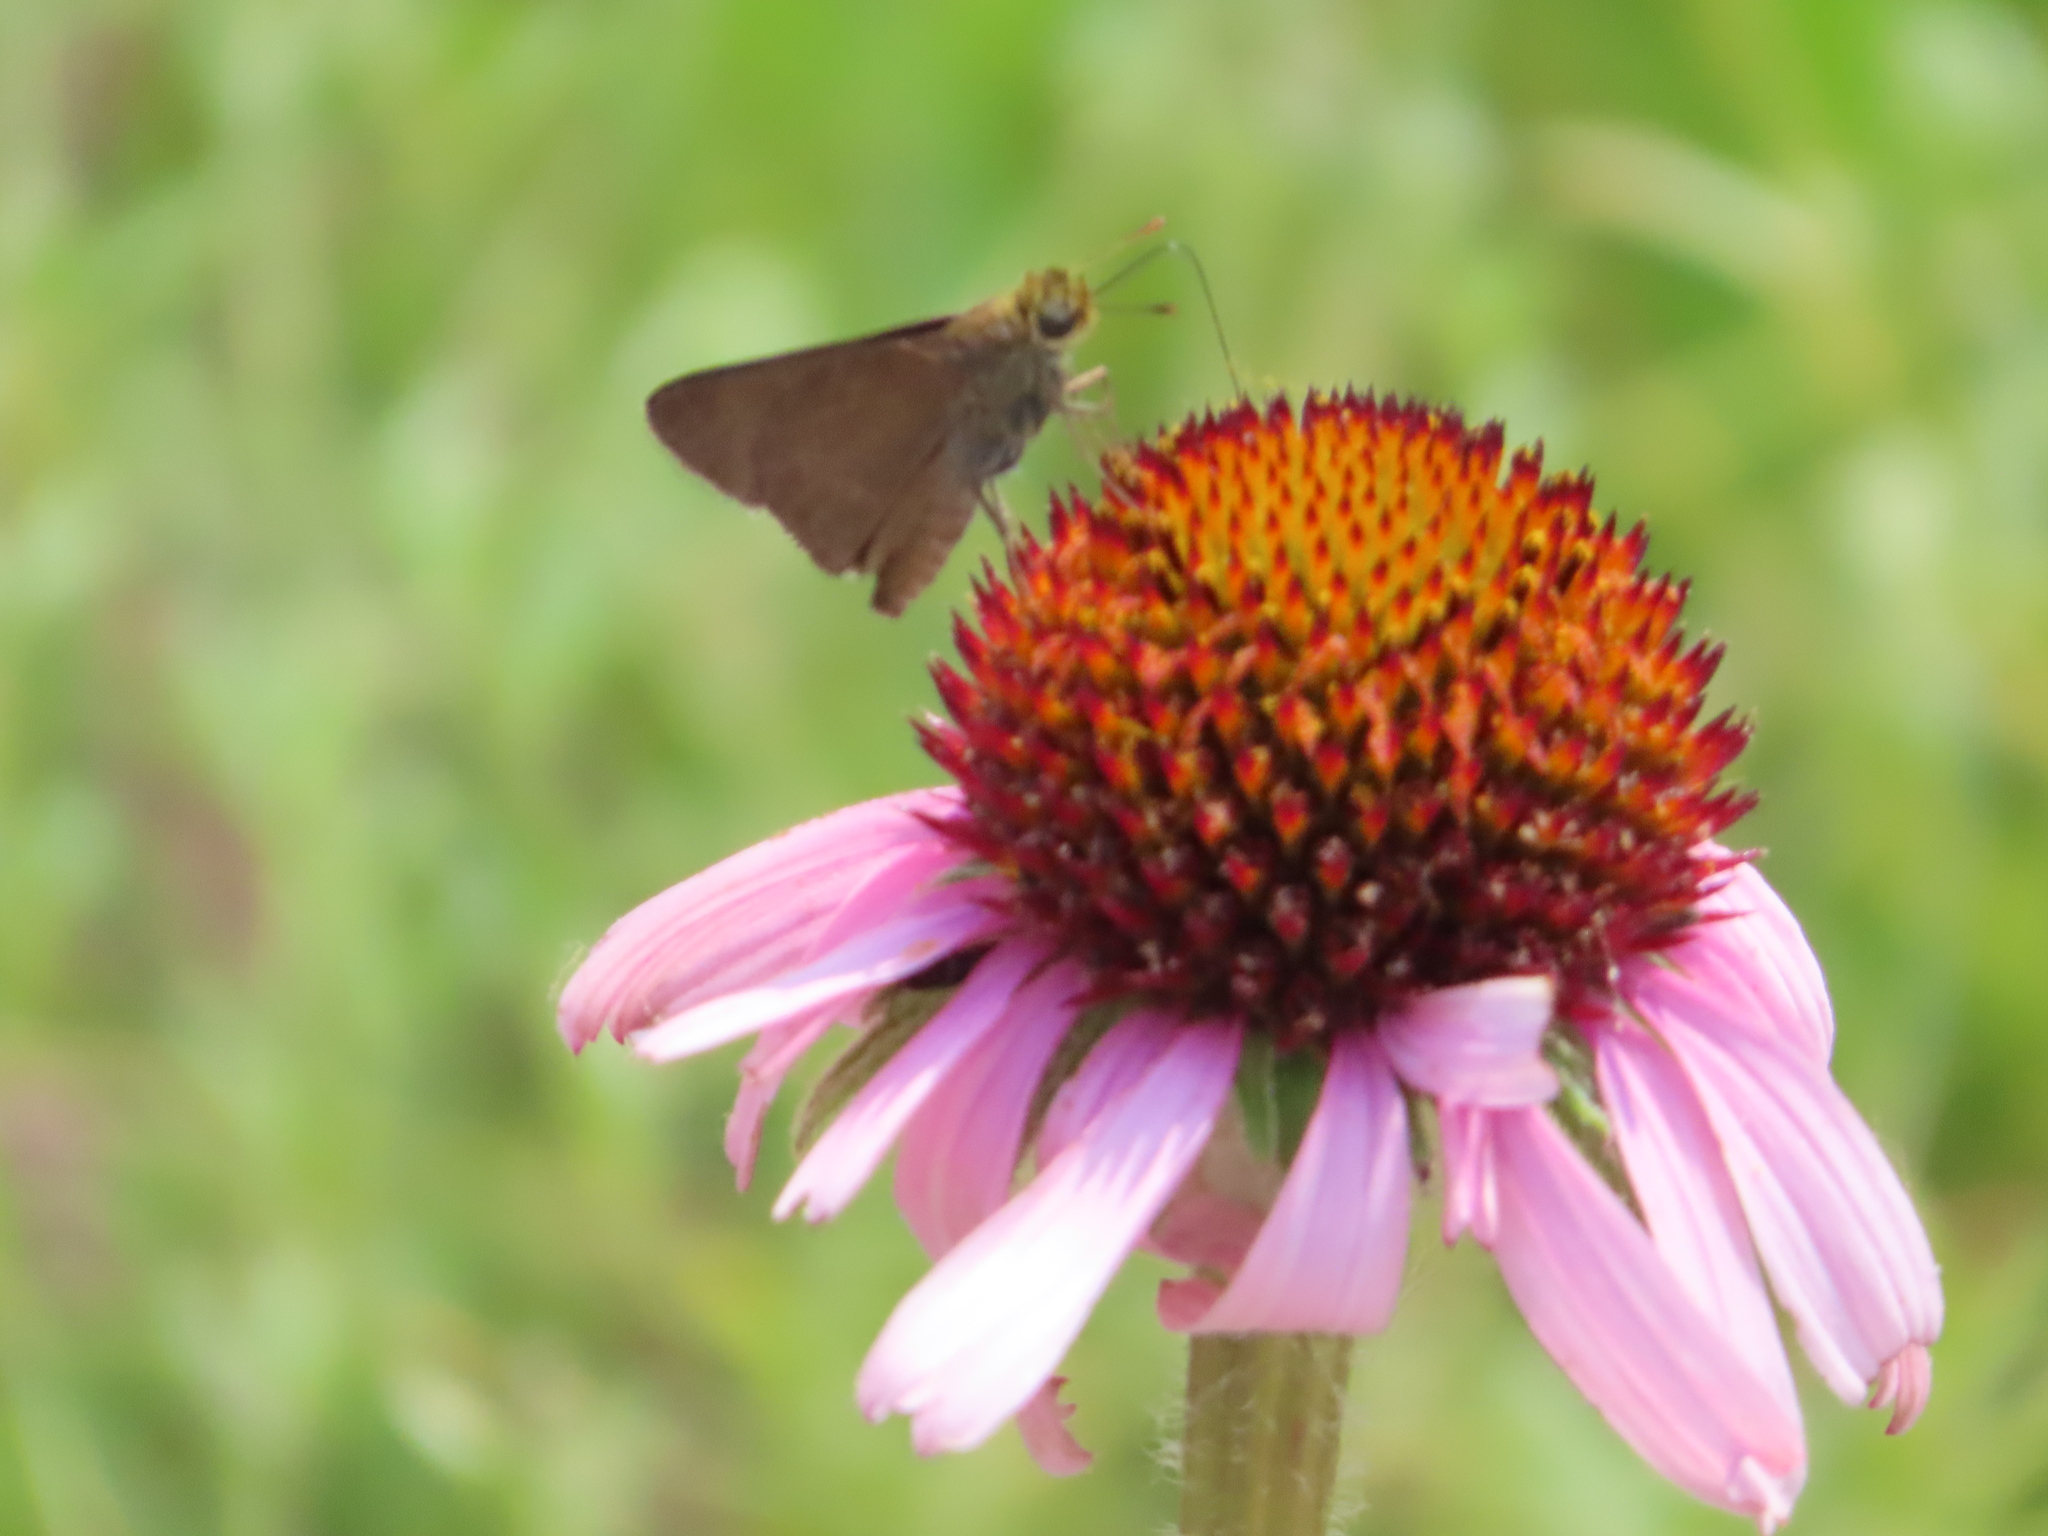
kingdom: Animalia
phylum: Arthropoda
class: Insecta
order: Lepidoptera
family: Hesperiidae
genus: Euphyes
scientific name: Euphyes vestris
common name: Dun skipper
